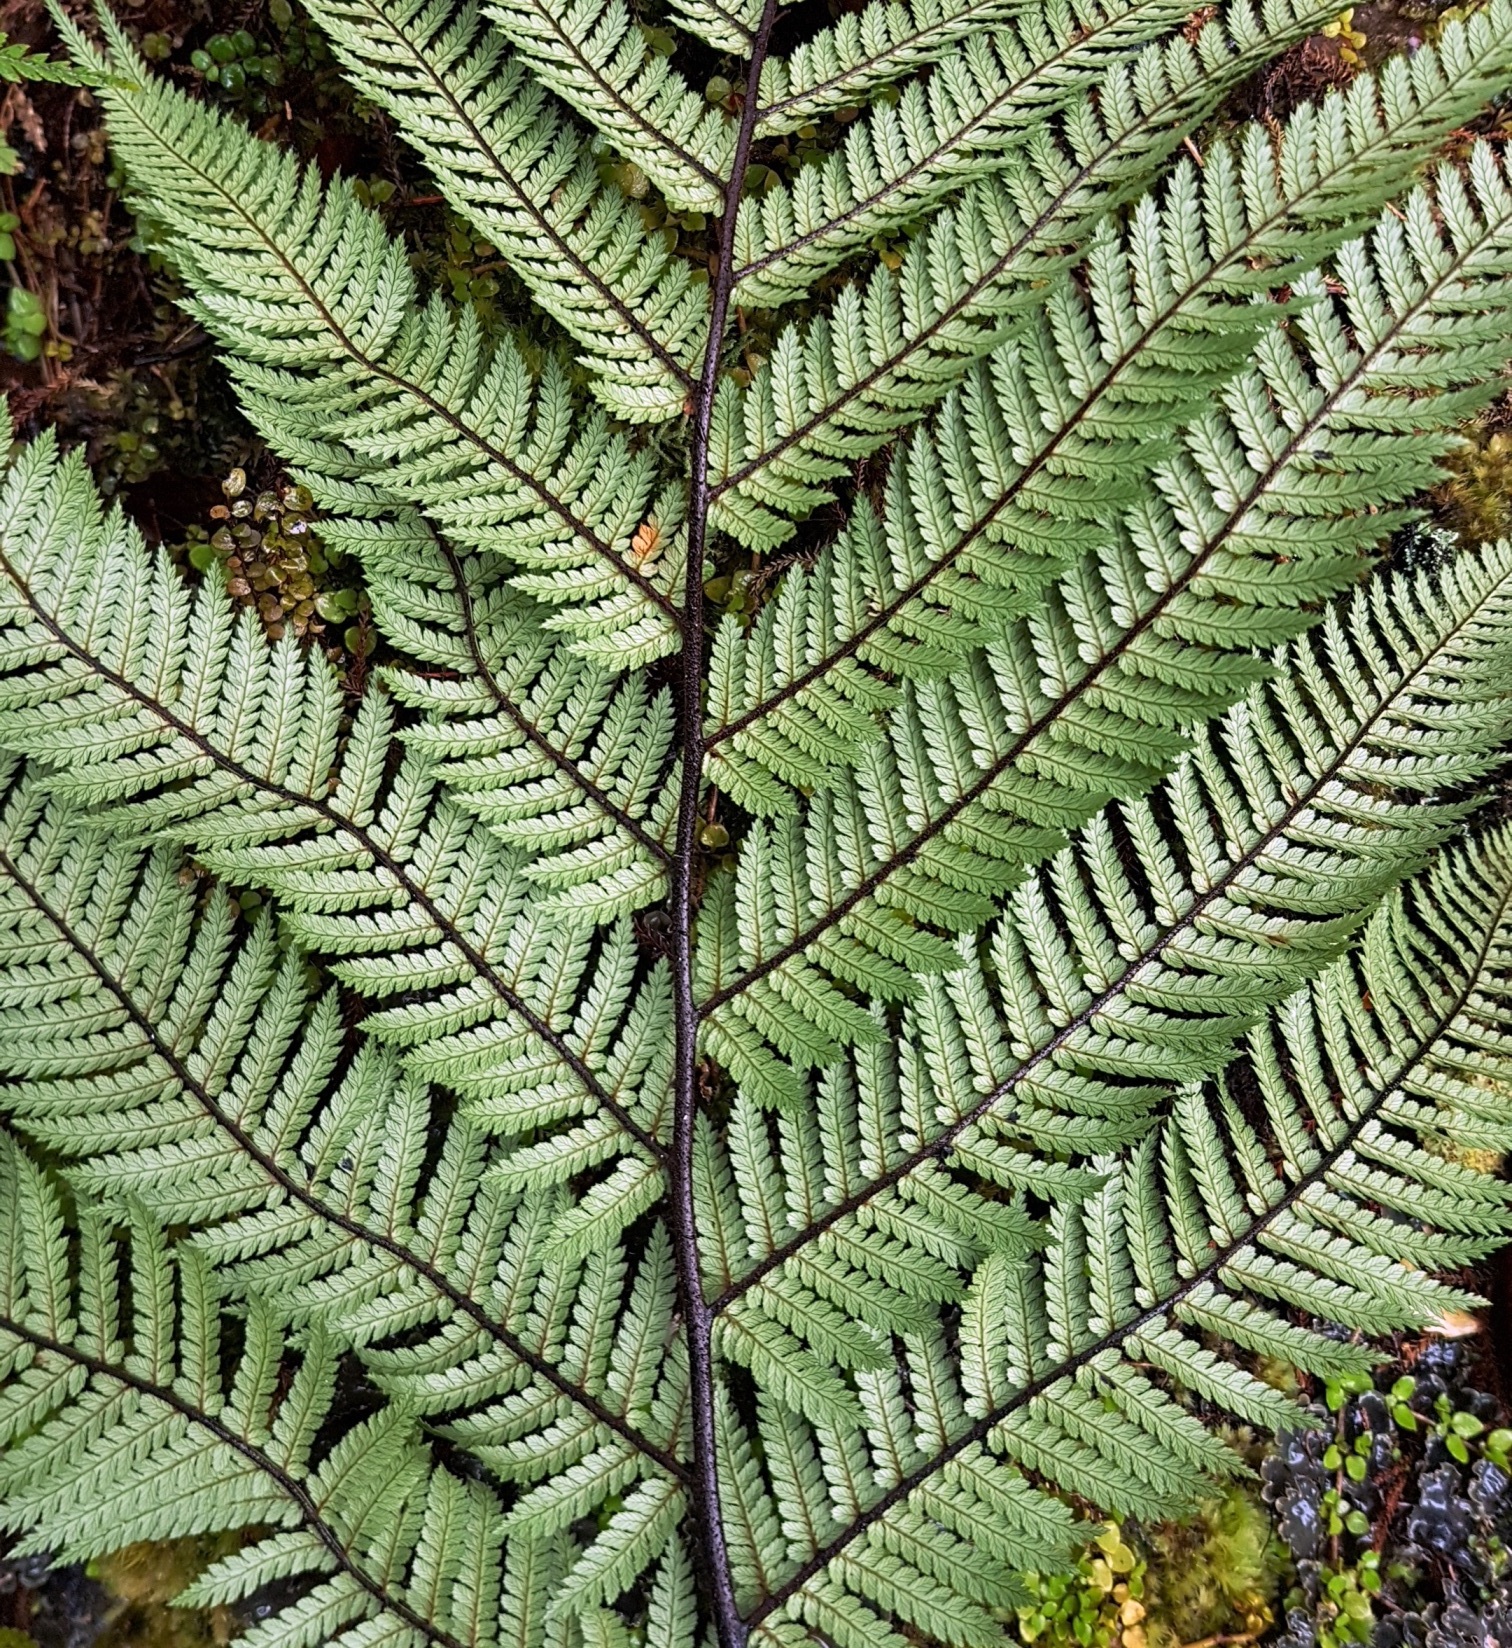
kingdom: Plantae
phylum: Tracheophyta
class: Polypodiopsida
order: Cyatheales
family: Dicksoniaceae
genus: Dicksonia
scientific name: Dicksonia squarrosa
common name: Hard treefern
